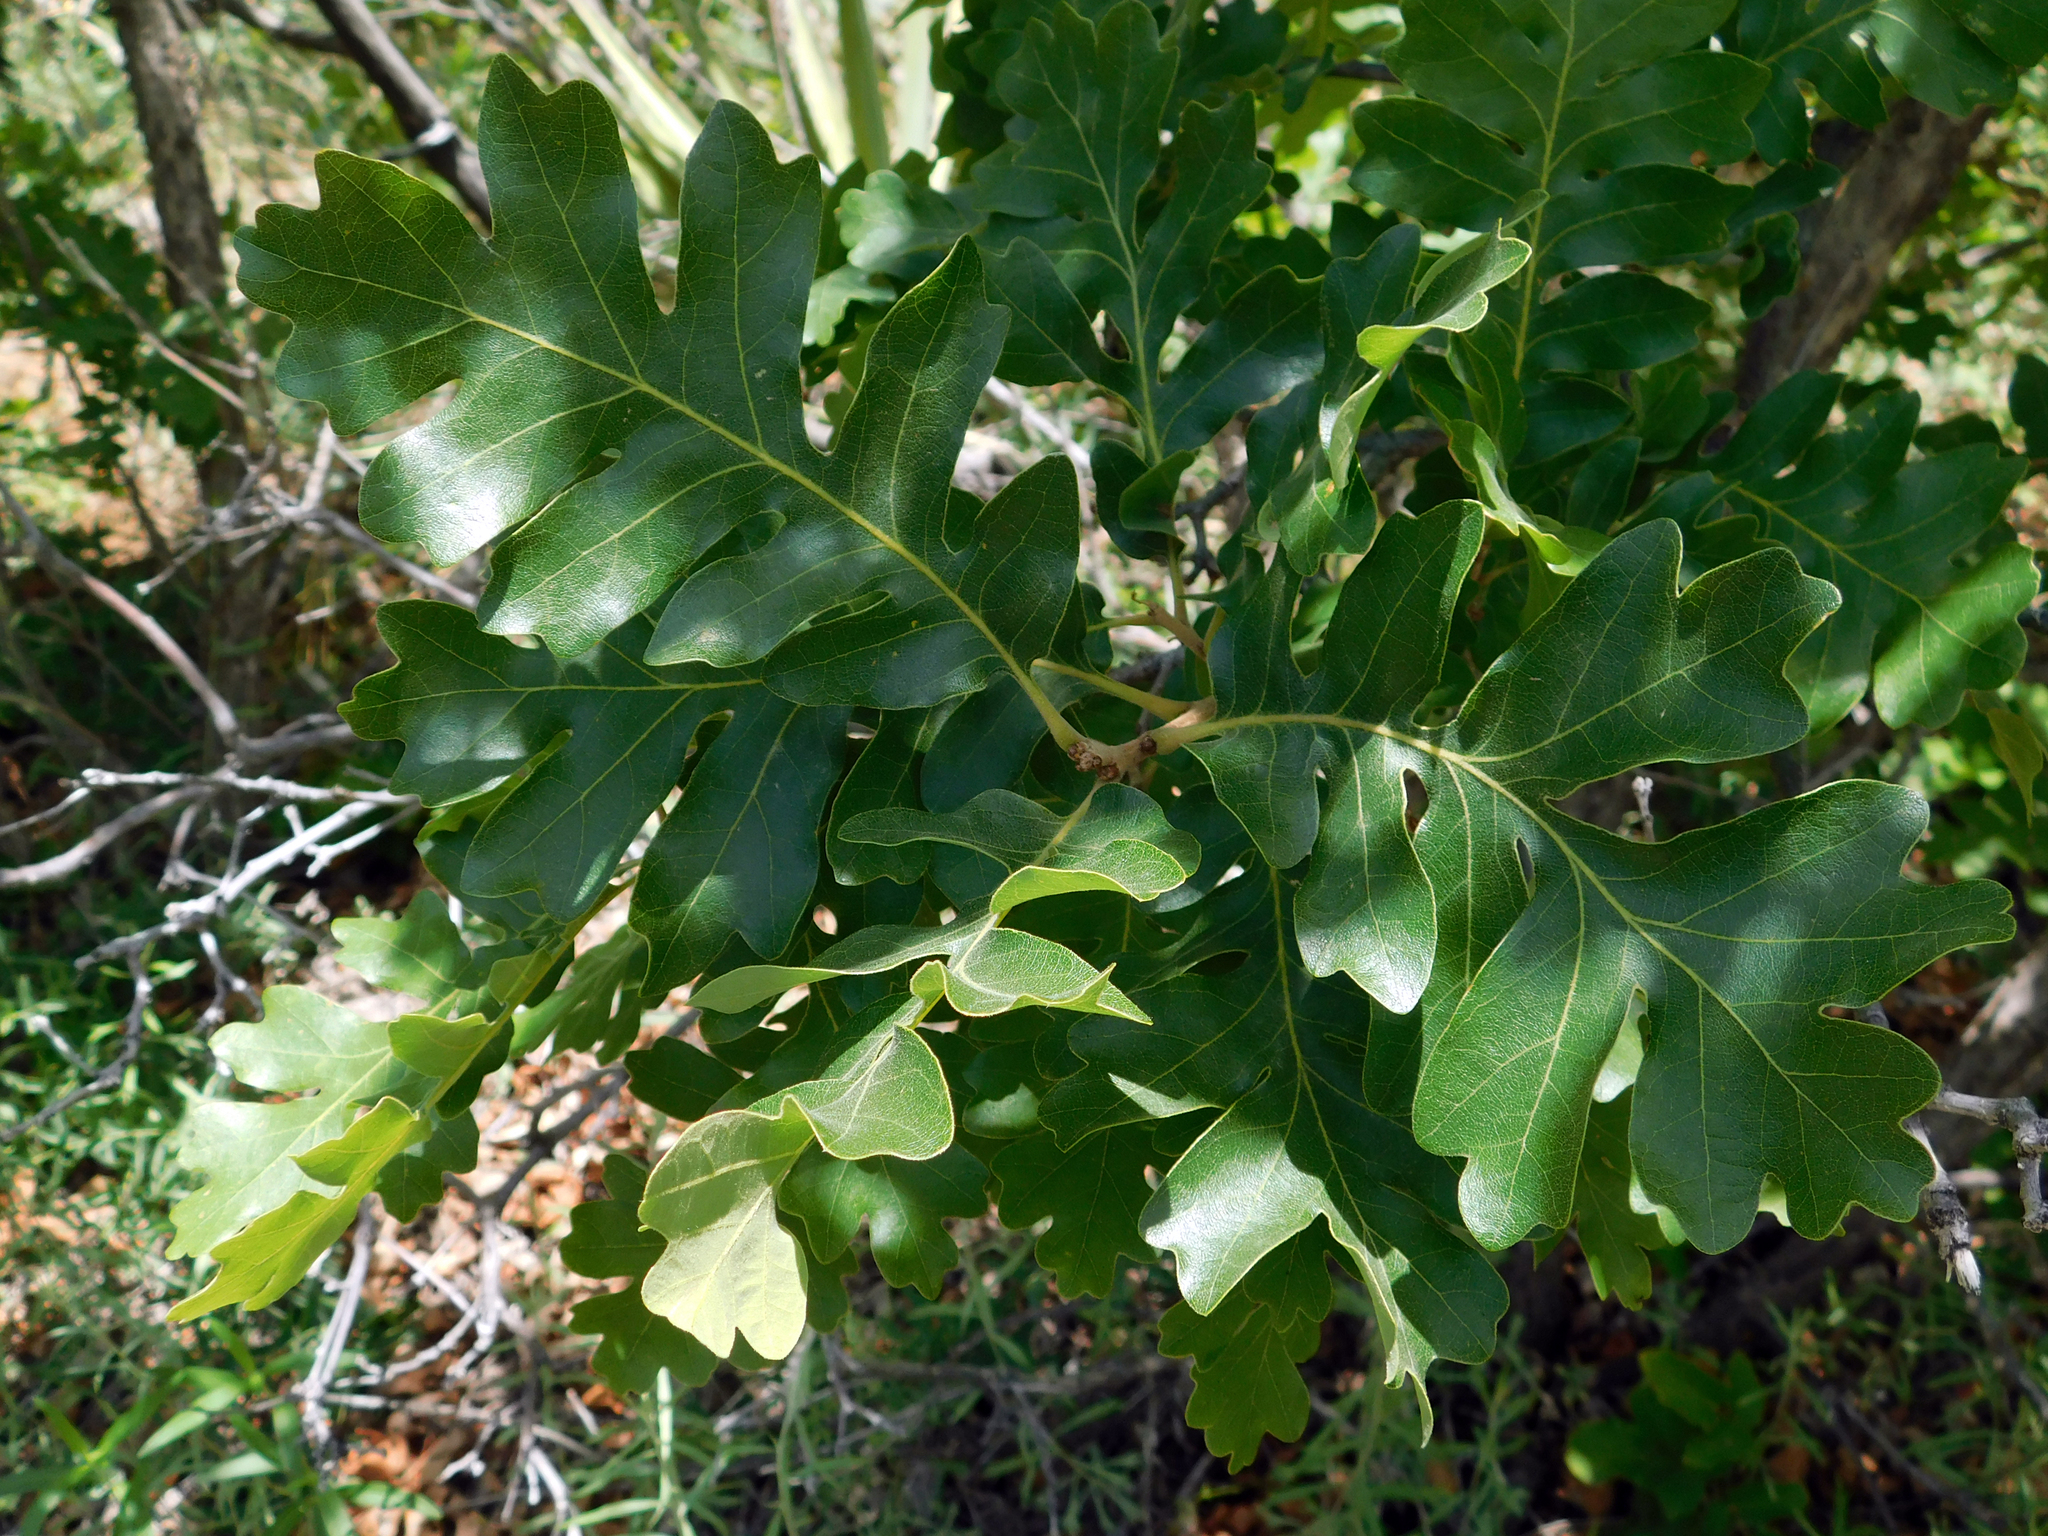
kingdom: Plantae
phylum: Tracheophyta
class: Magnoliopsida
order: Fagales
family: Fagaceae
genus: Quercus
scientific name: Quercus gambelii
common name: Gambel oak
